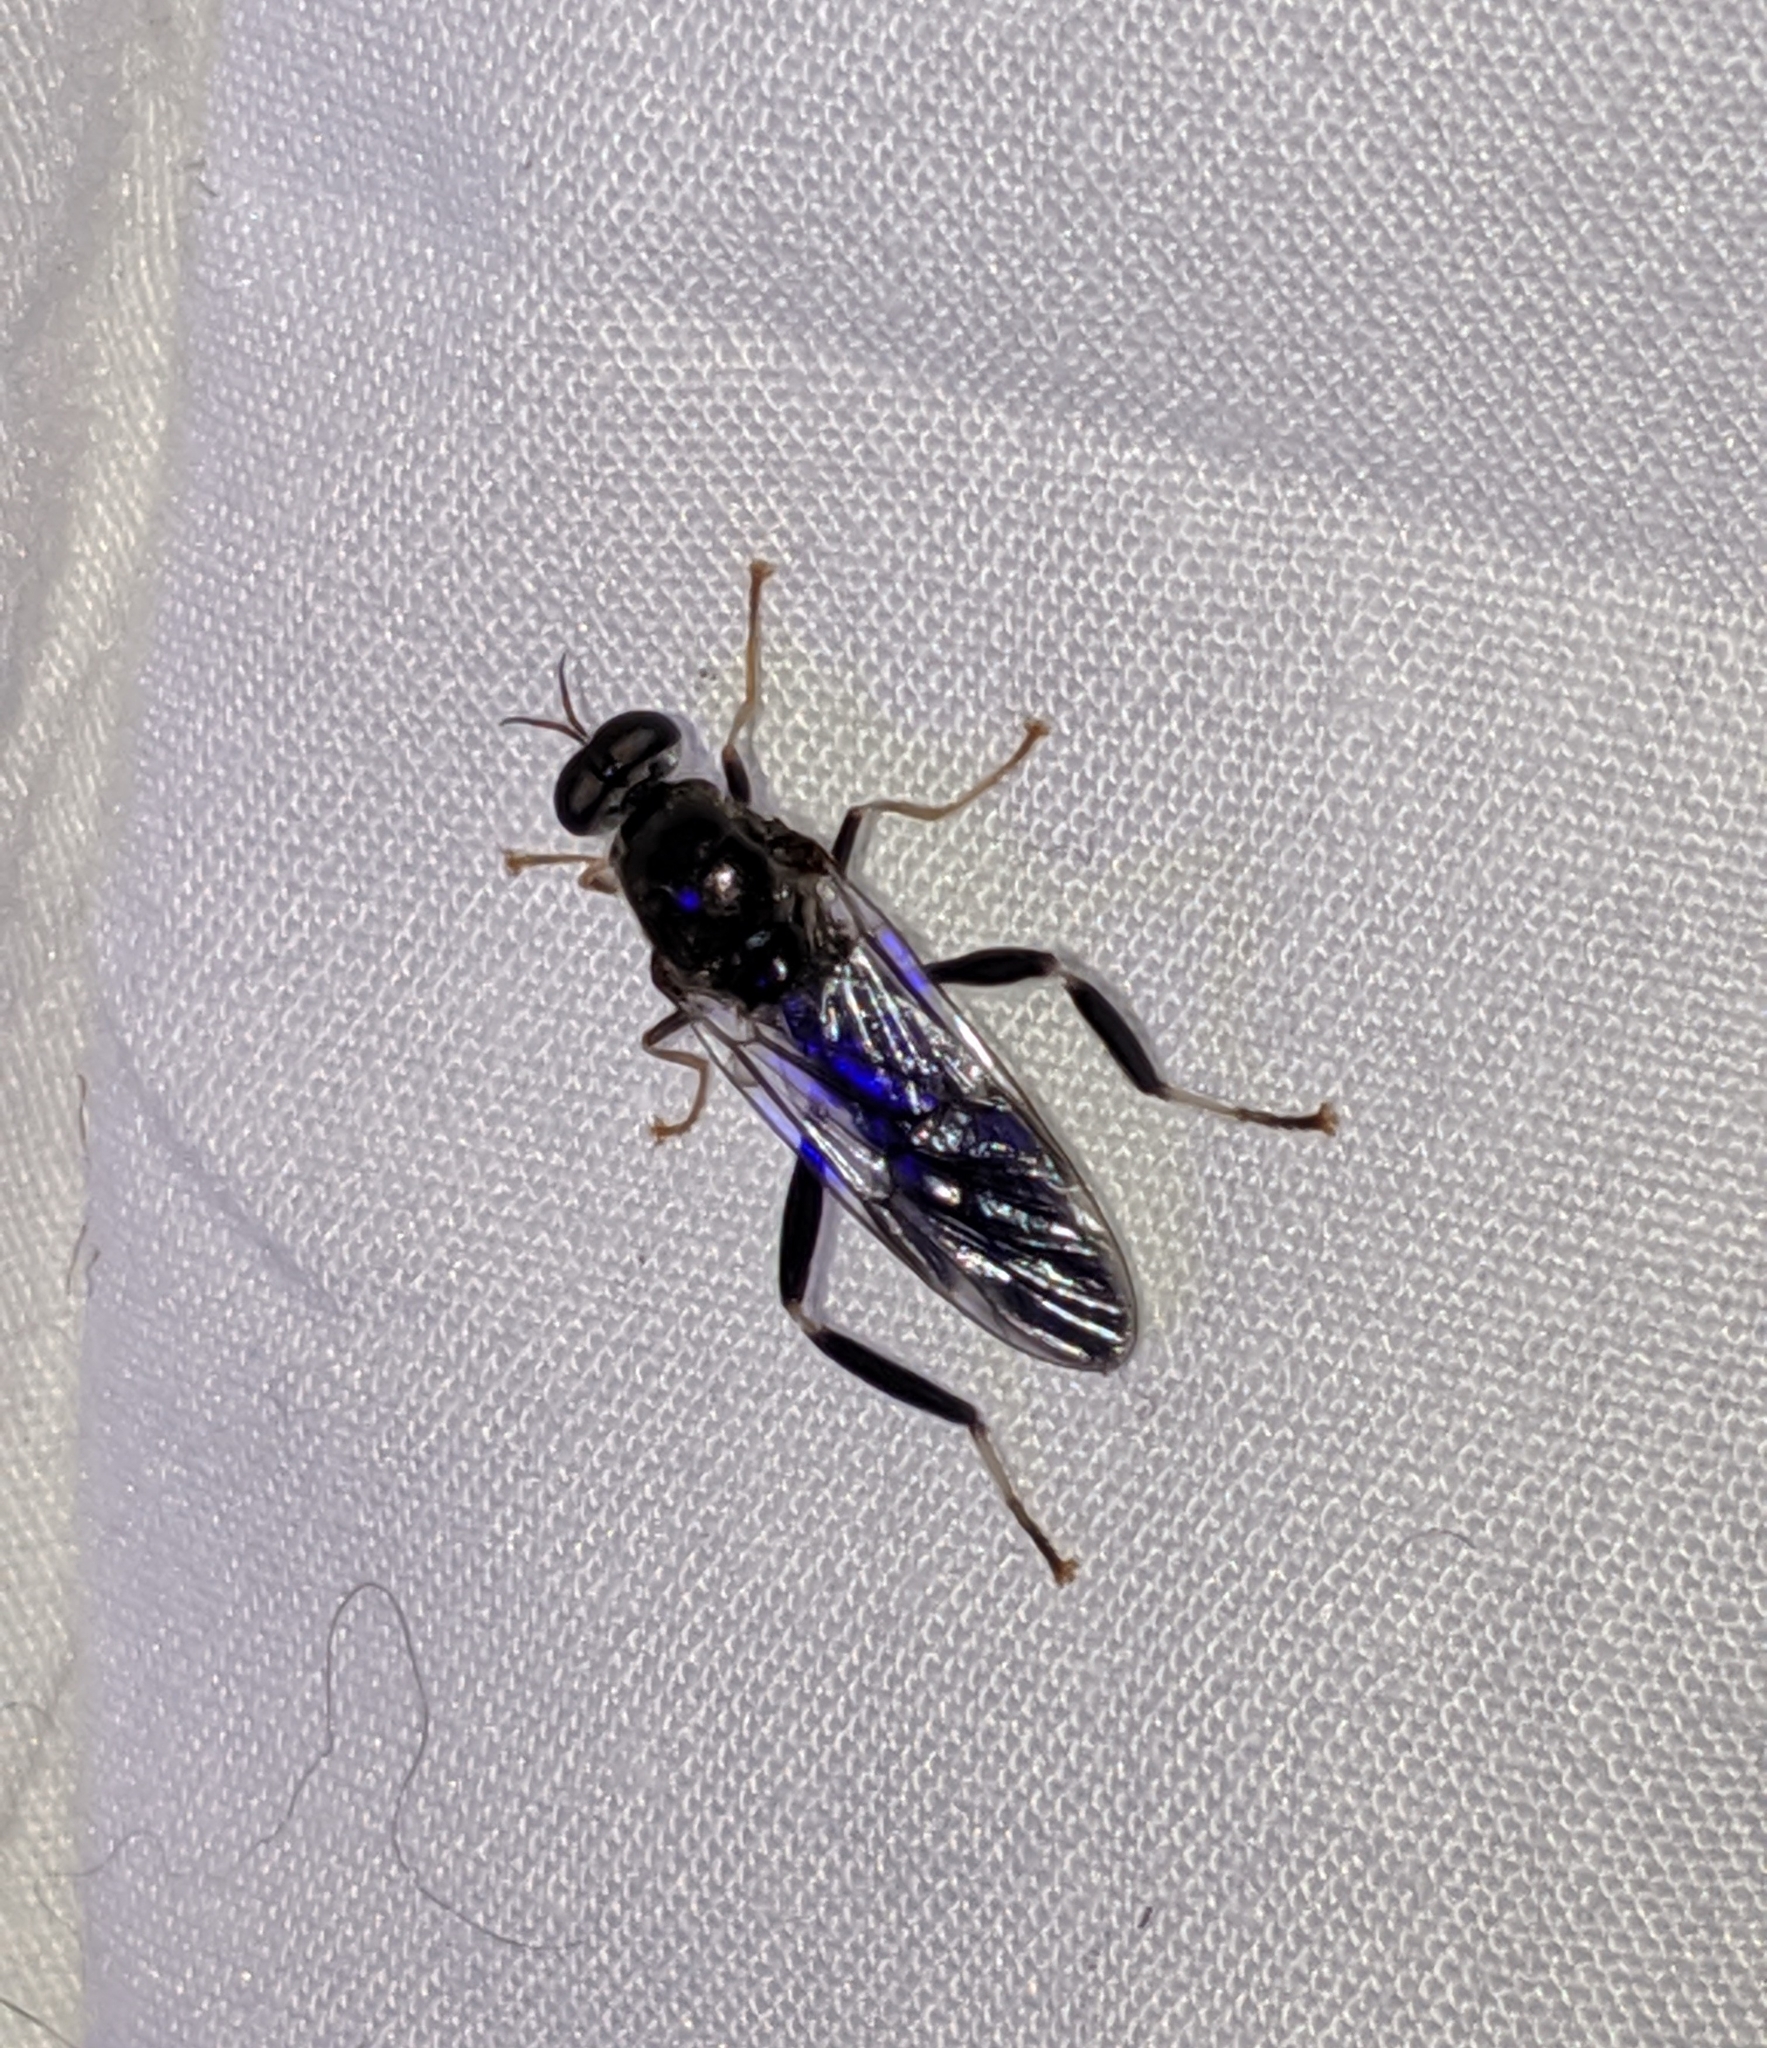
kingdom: Animalia
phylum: Arthropoda
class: Insecta
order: Diptera
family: Stratiomyidae
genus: Exaireta
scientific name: Exaireta spinigera
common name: Blue soldier fly
